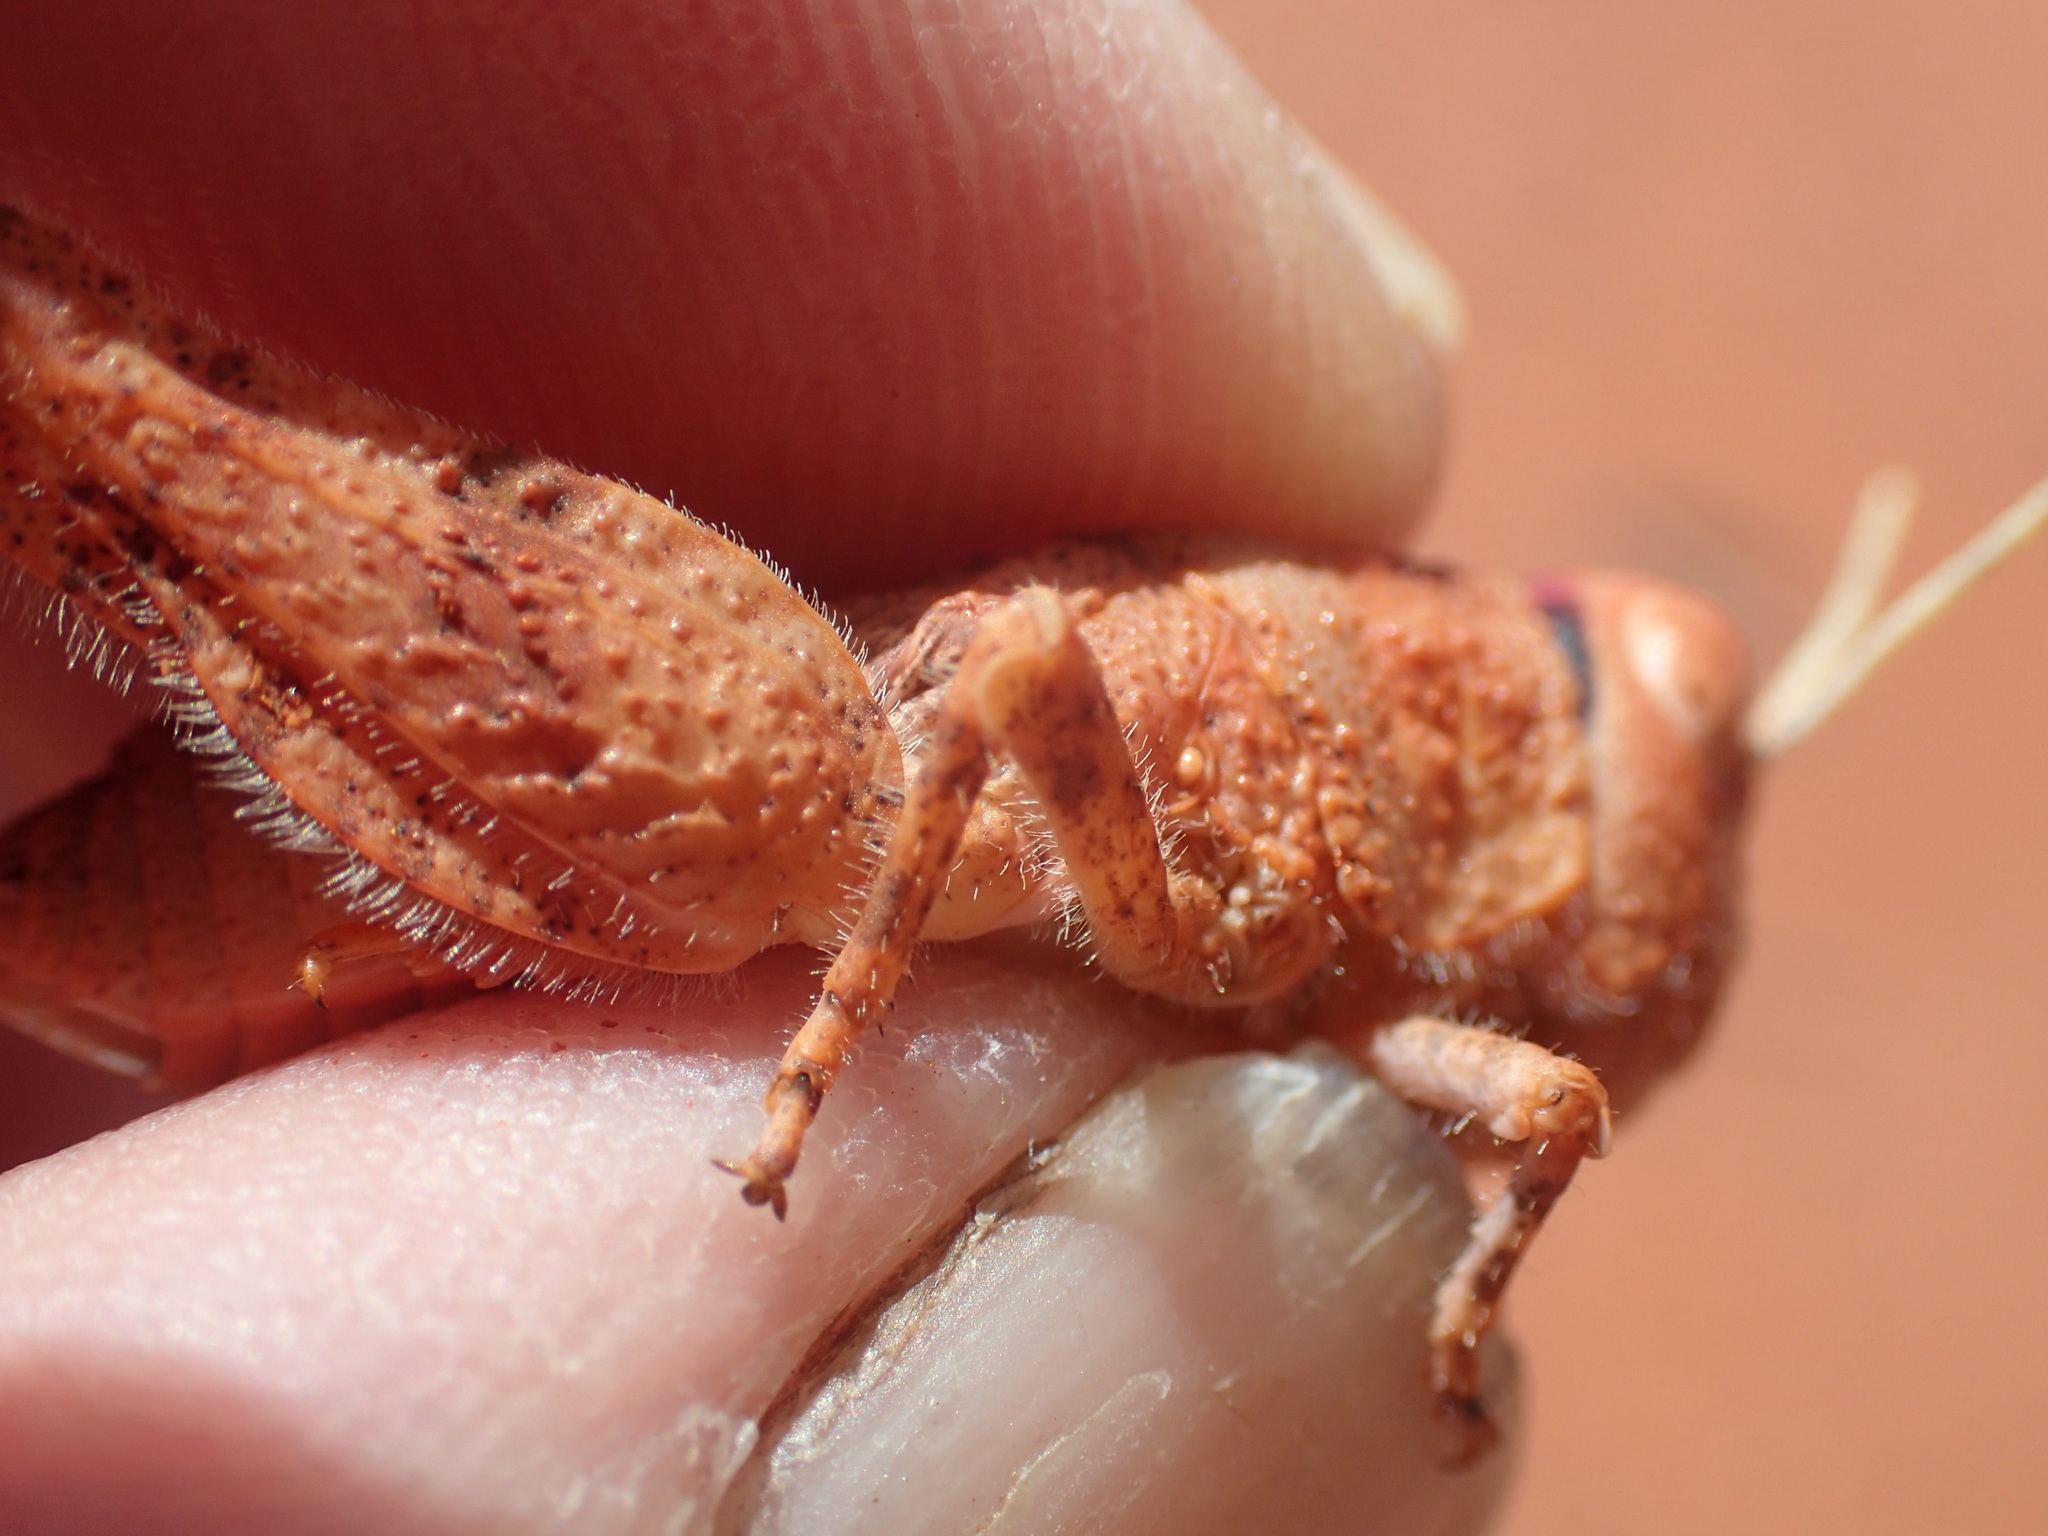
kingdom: Animalia
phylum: Arthropoda
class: Insecta
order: Orthoptera
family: Acrididae
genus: Buforania
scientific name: Buforania crassa
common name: Common toadhopper
